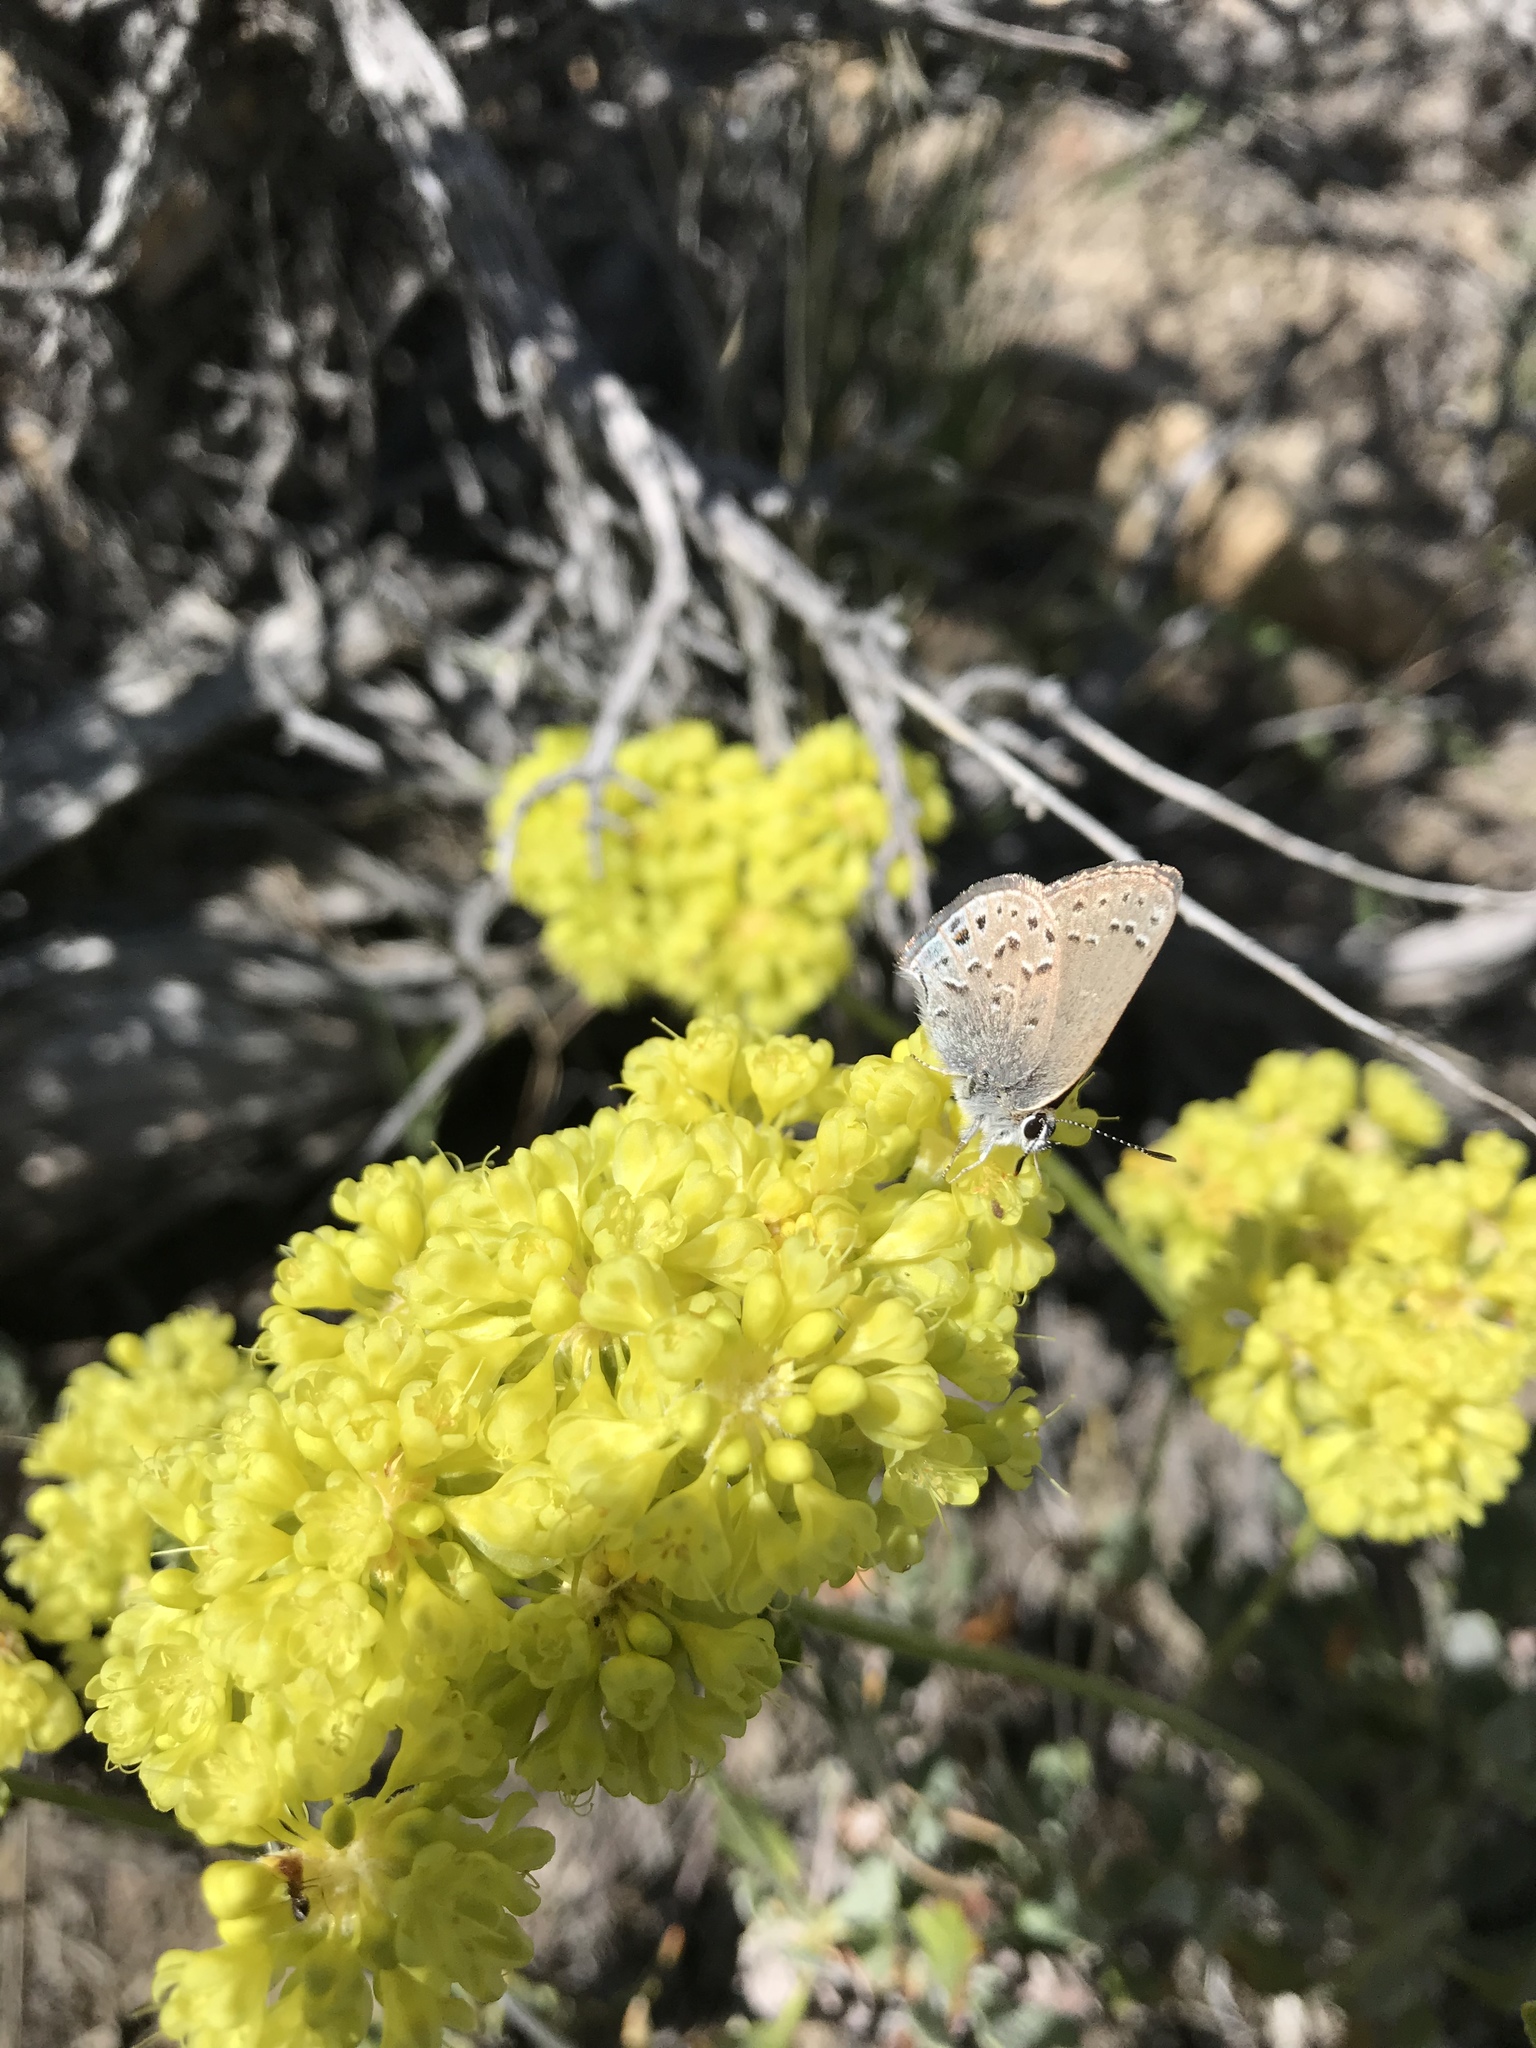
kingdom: Animalia
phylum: Arthropoda
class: Insecta
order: Lepidoptera
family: Lycaenidae
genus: Satyrium
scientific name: Satyrium behrii
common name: Behr's hairstreak
